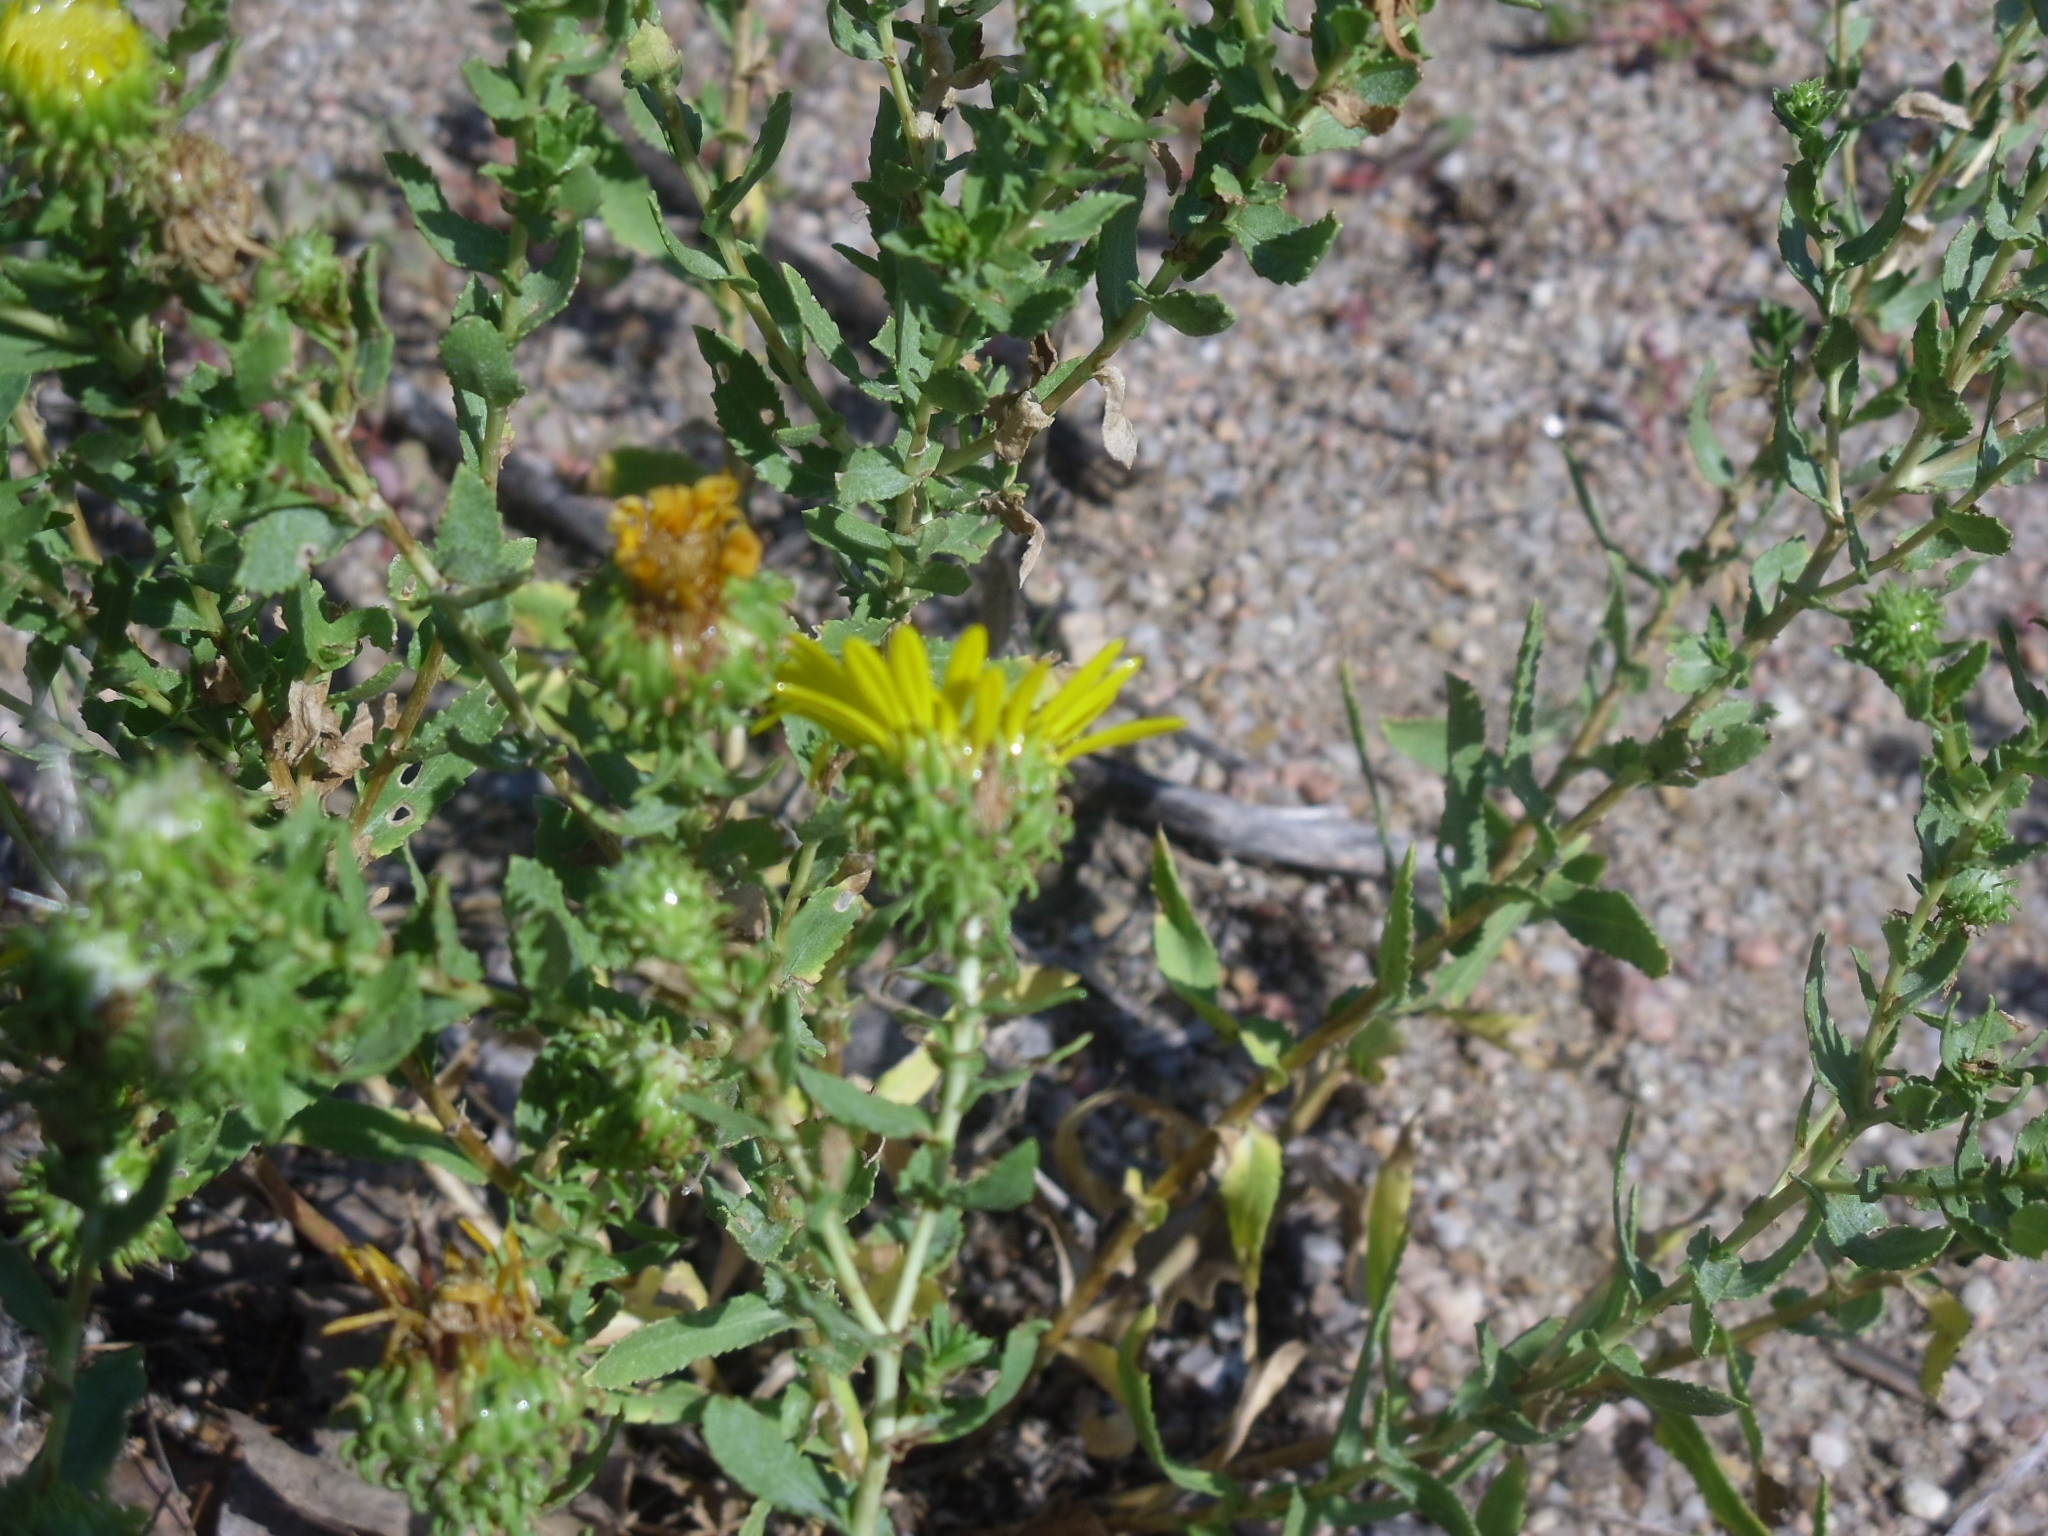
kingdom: Plantae
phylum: Tracheophyta
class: Magnoliopsida
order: Asterales
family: Asteraceae
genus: Grindelia
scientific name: Grindelia squarrosa
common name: Curly-cup gumweed
